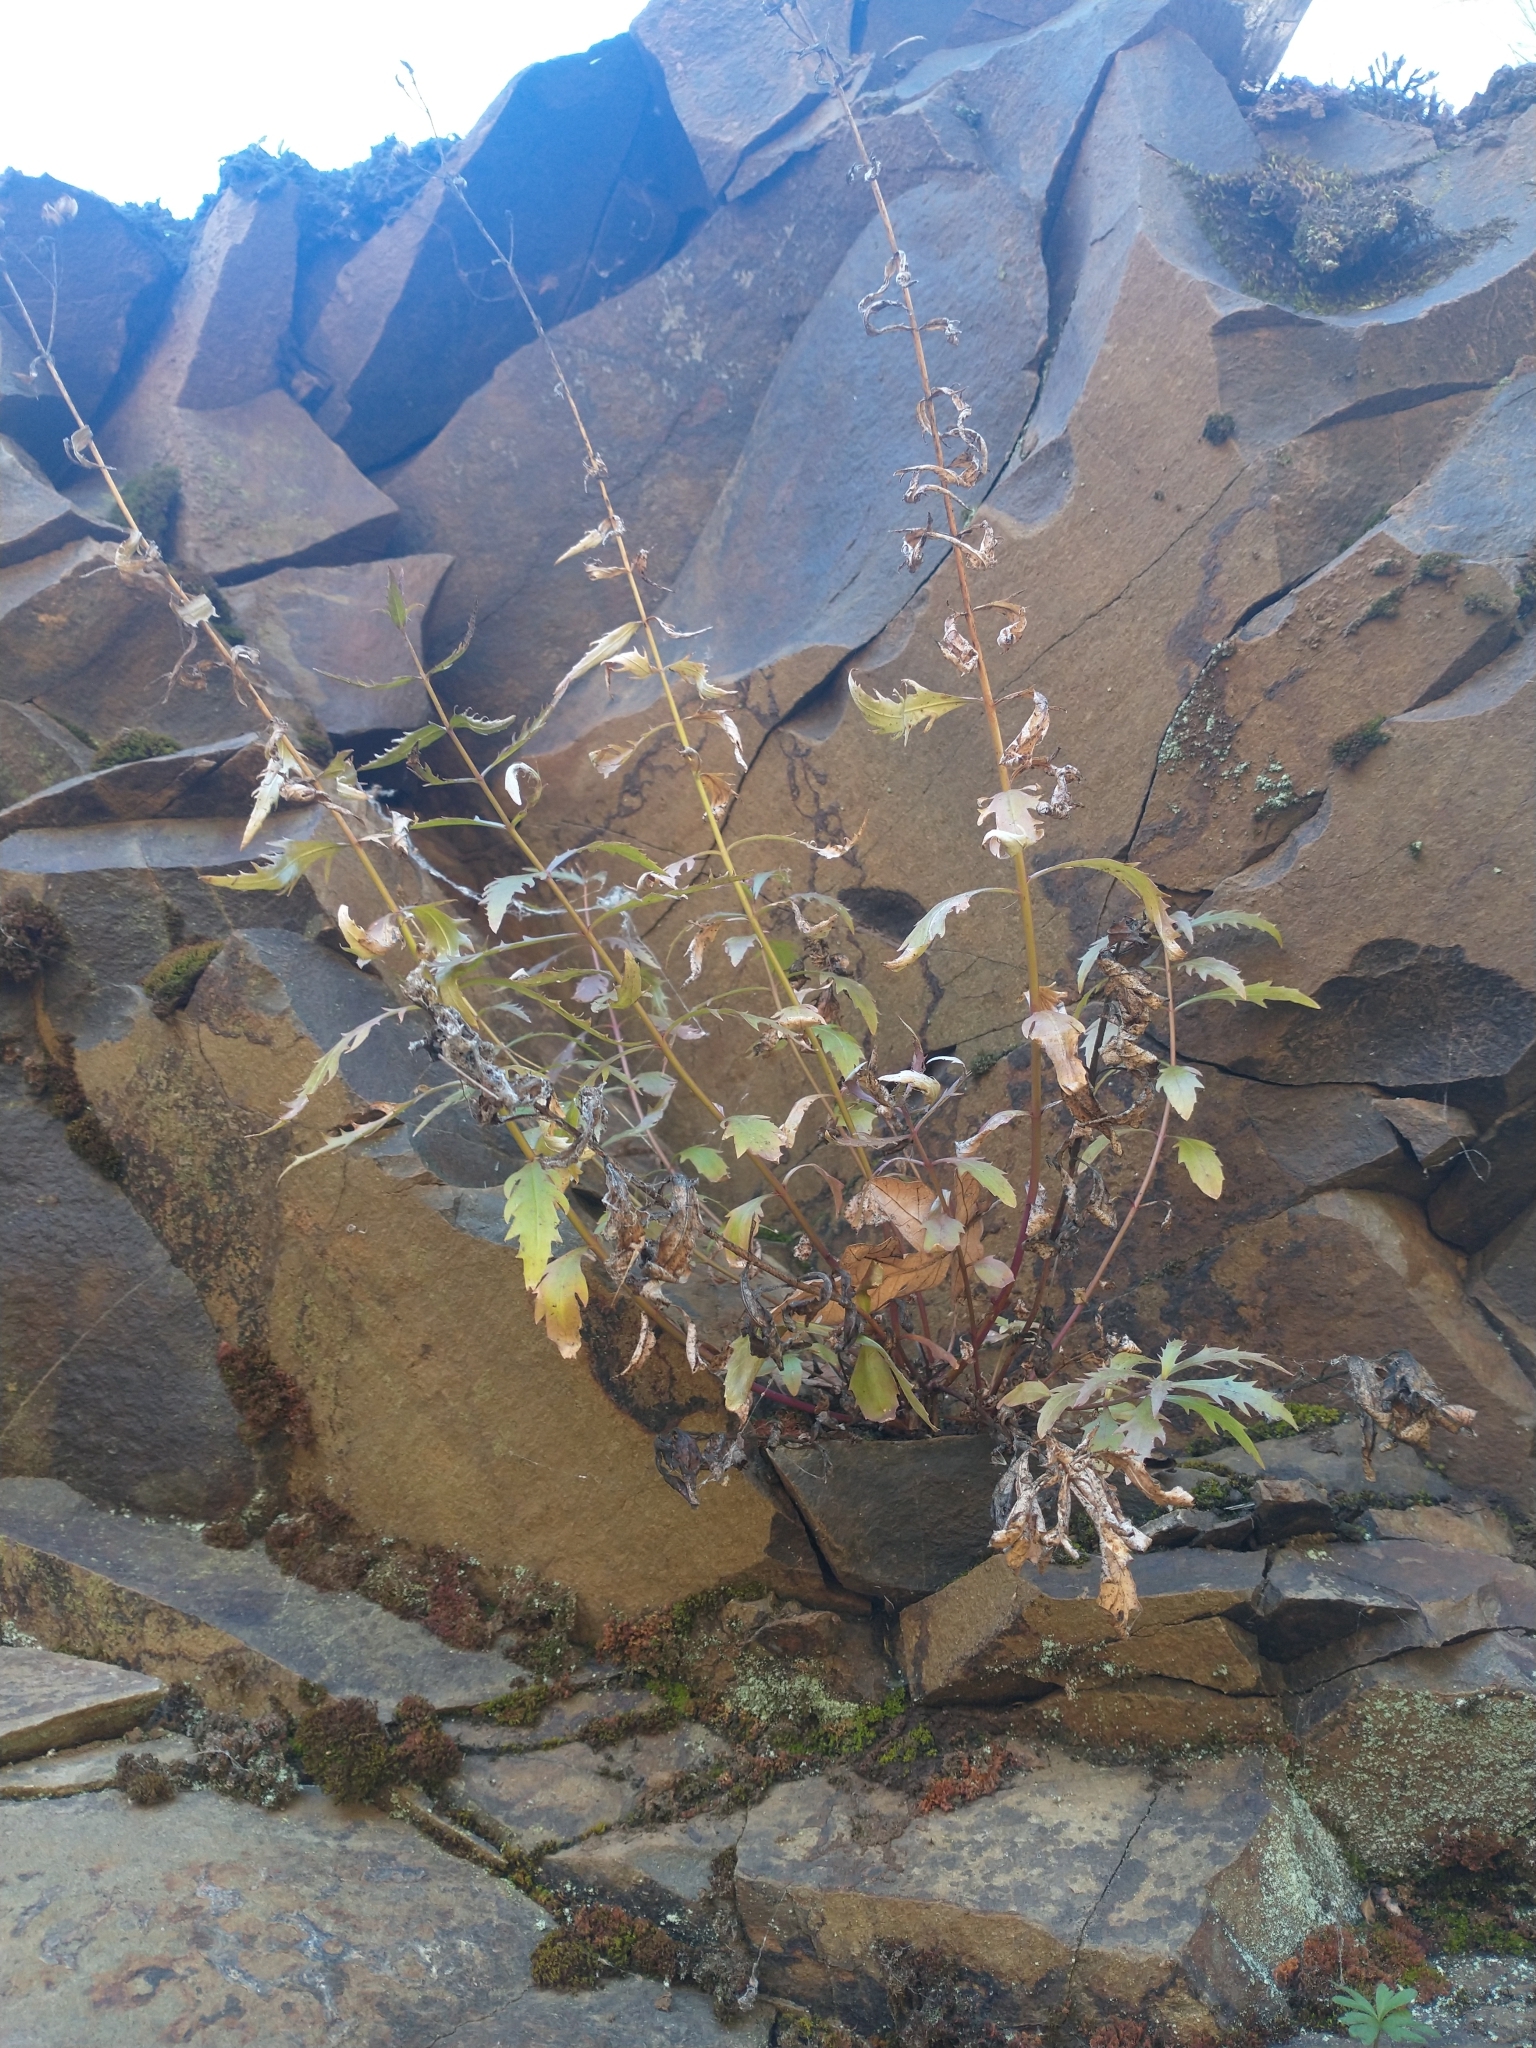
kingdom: Plantae
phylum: Tracheophyta
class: Magnoliopsida
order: Lamiales
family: Plantaginaceae
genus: Penstemon
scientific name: Penstemon richardsonii
